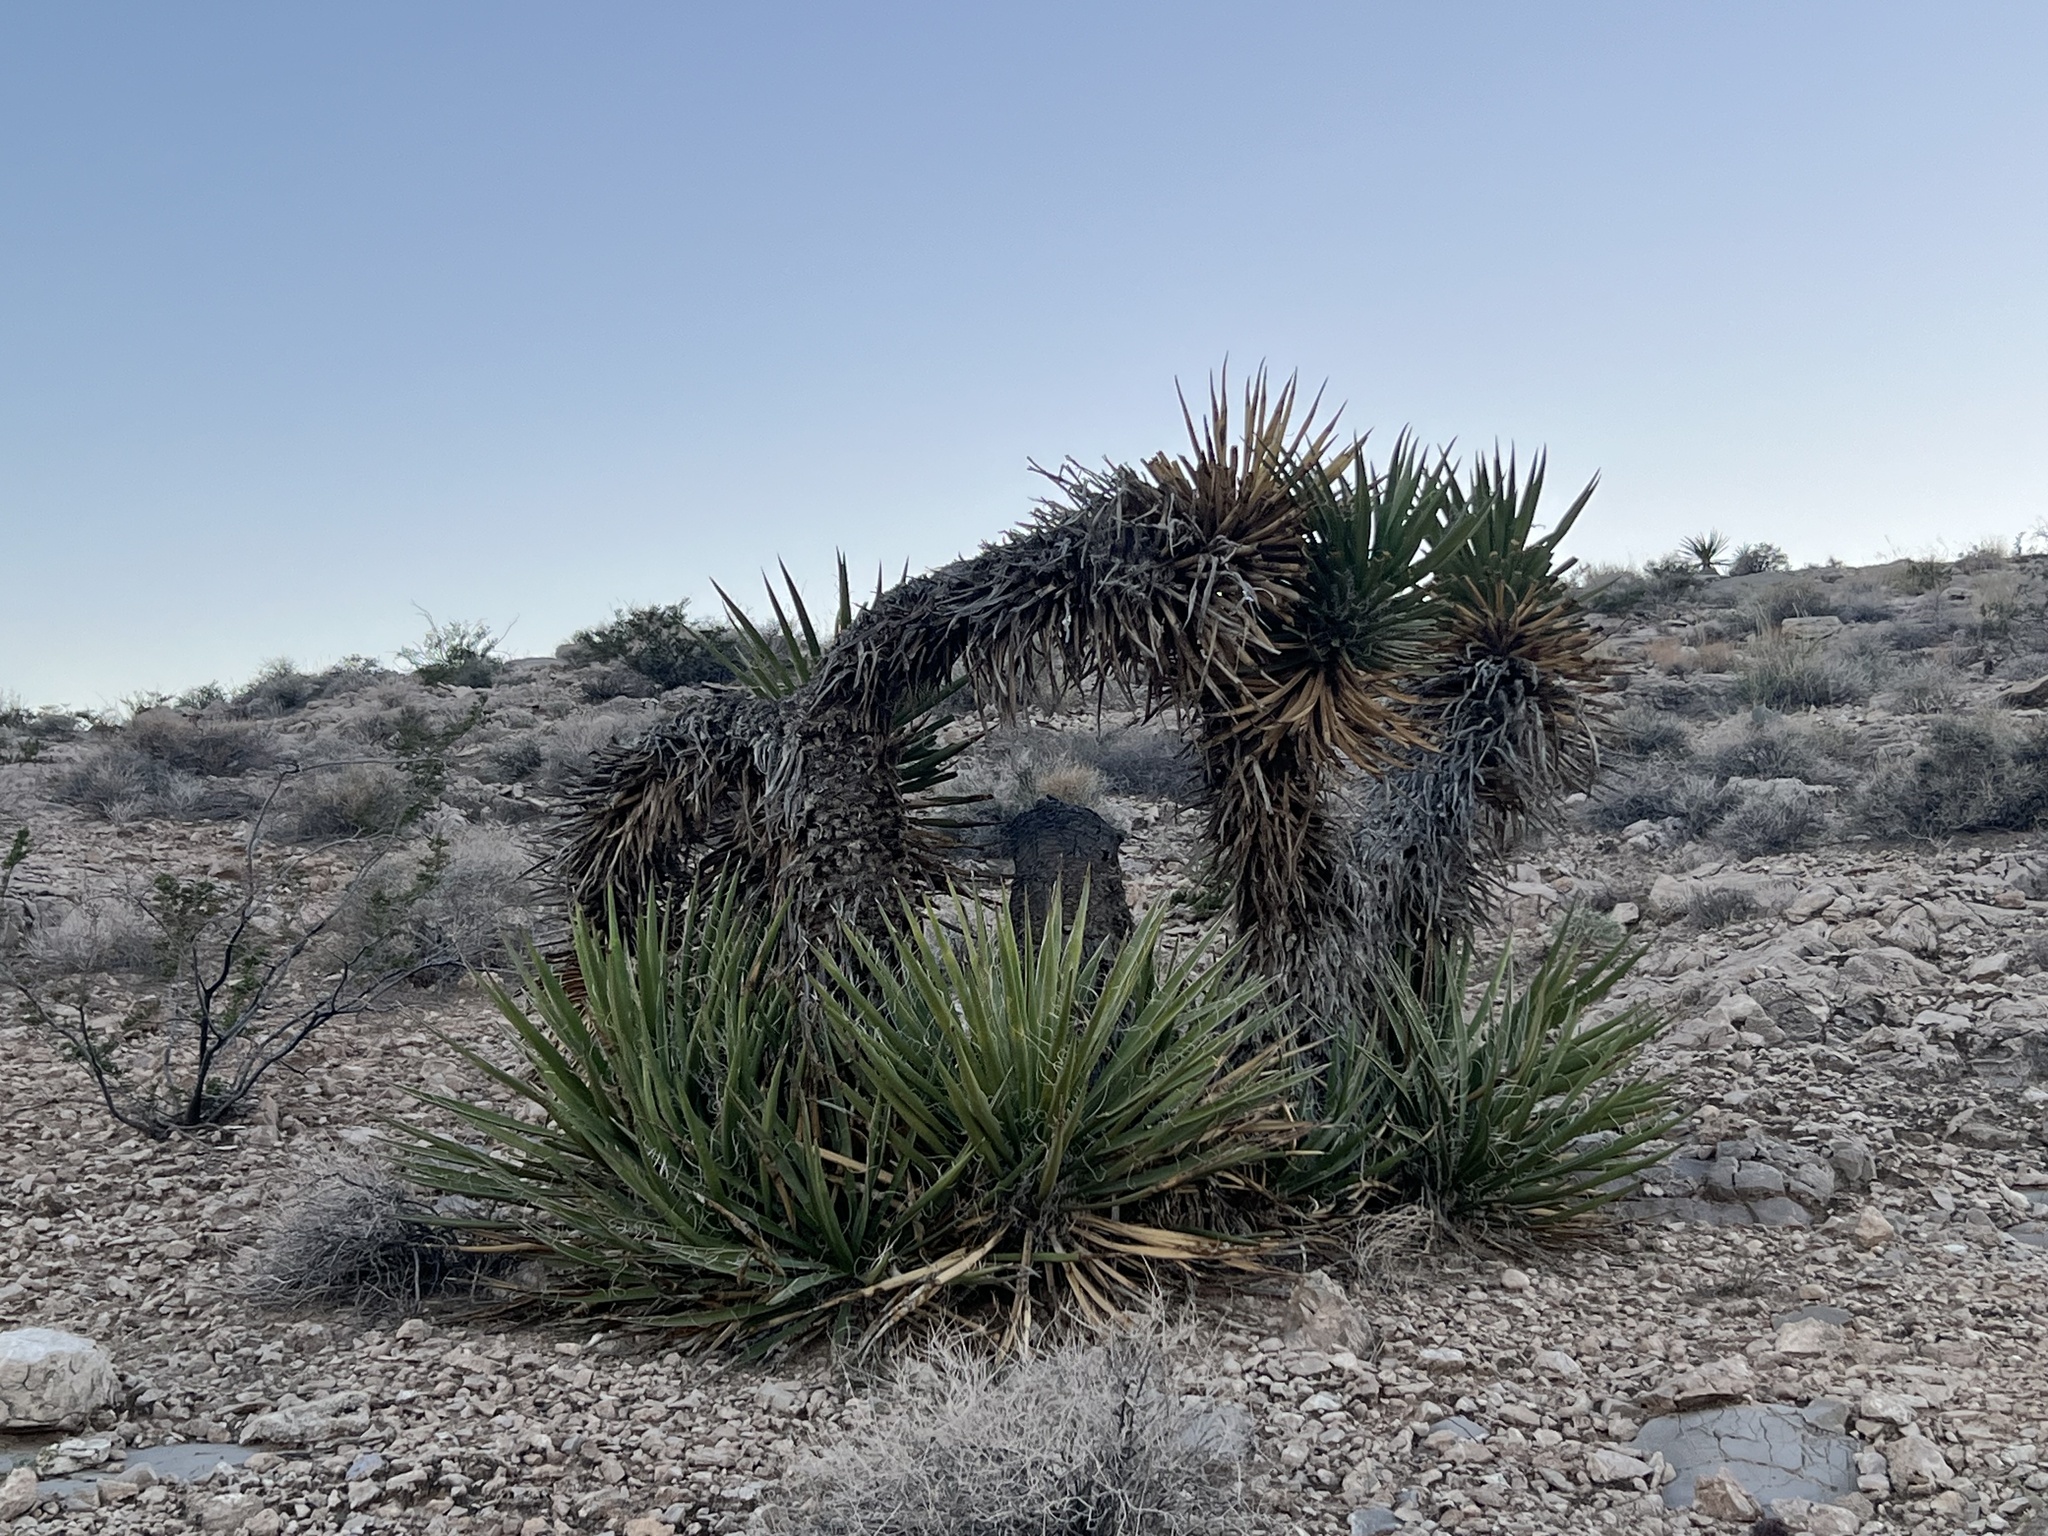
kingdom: Plantae
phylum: Tracheophyta
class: Liliopsida
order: Asparagales
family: Asparagaceae
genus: Yucca
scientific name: Yucca schidigera
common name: Mojave yucca
